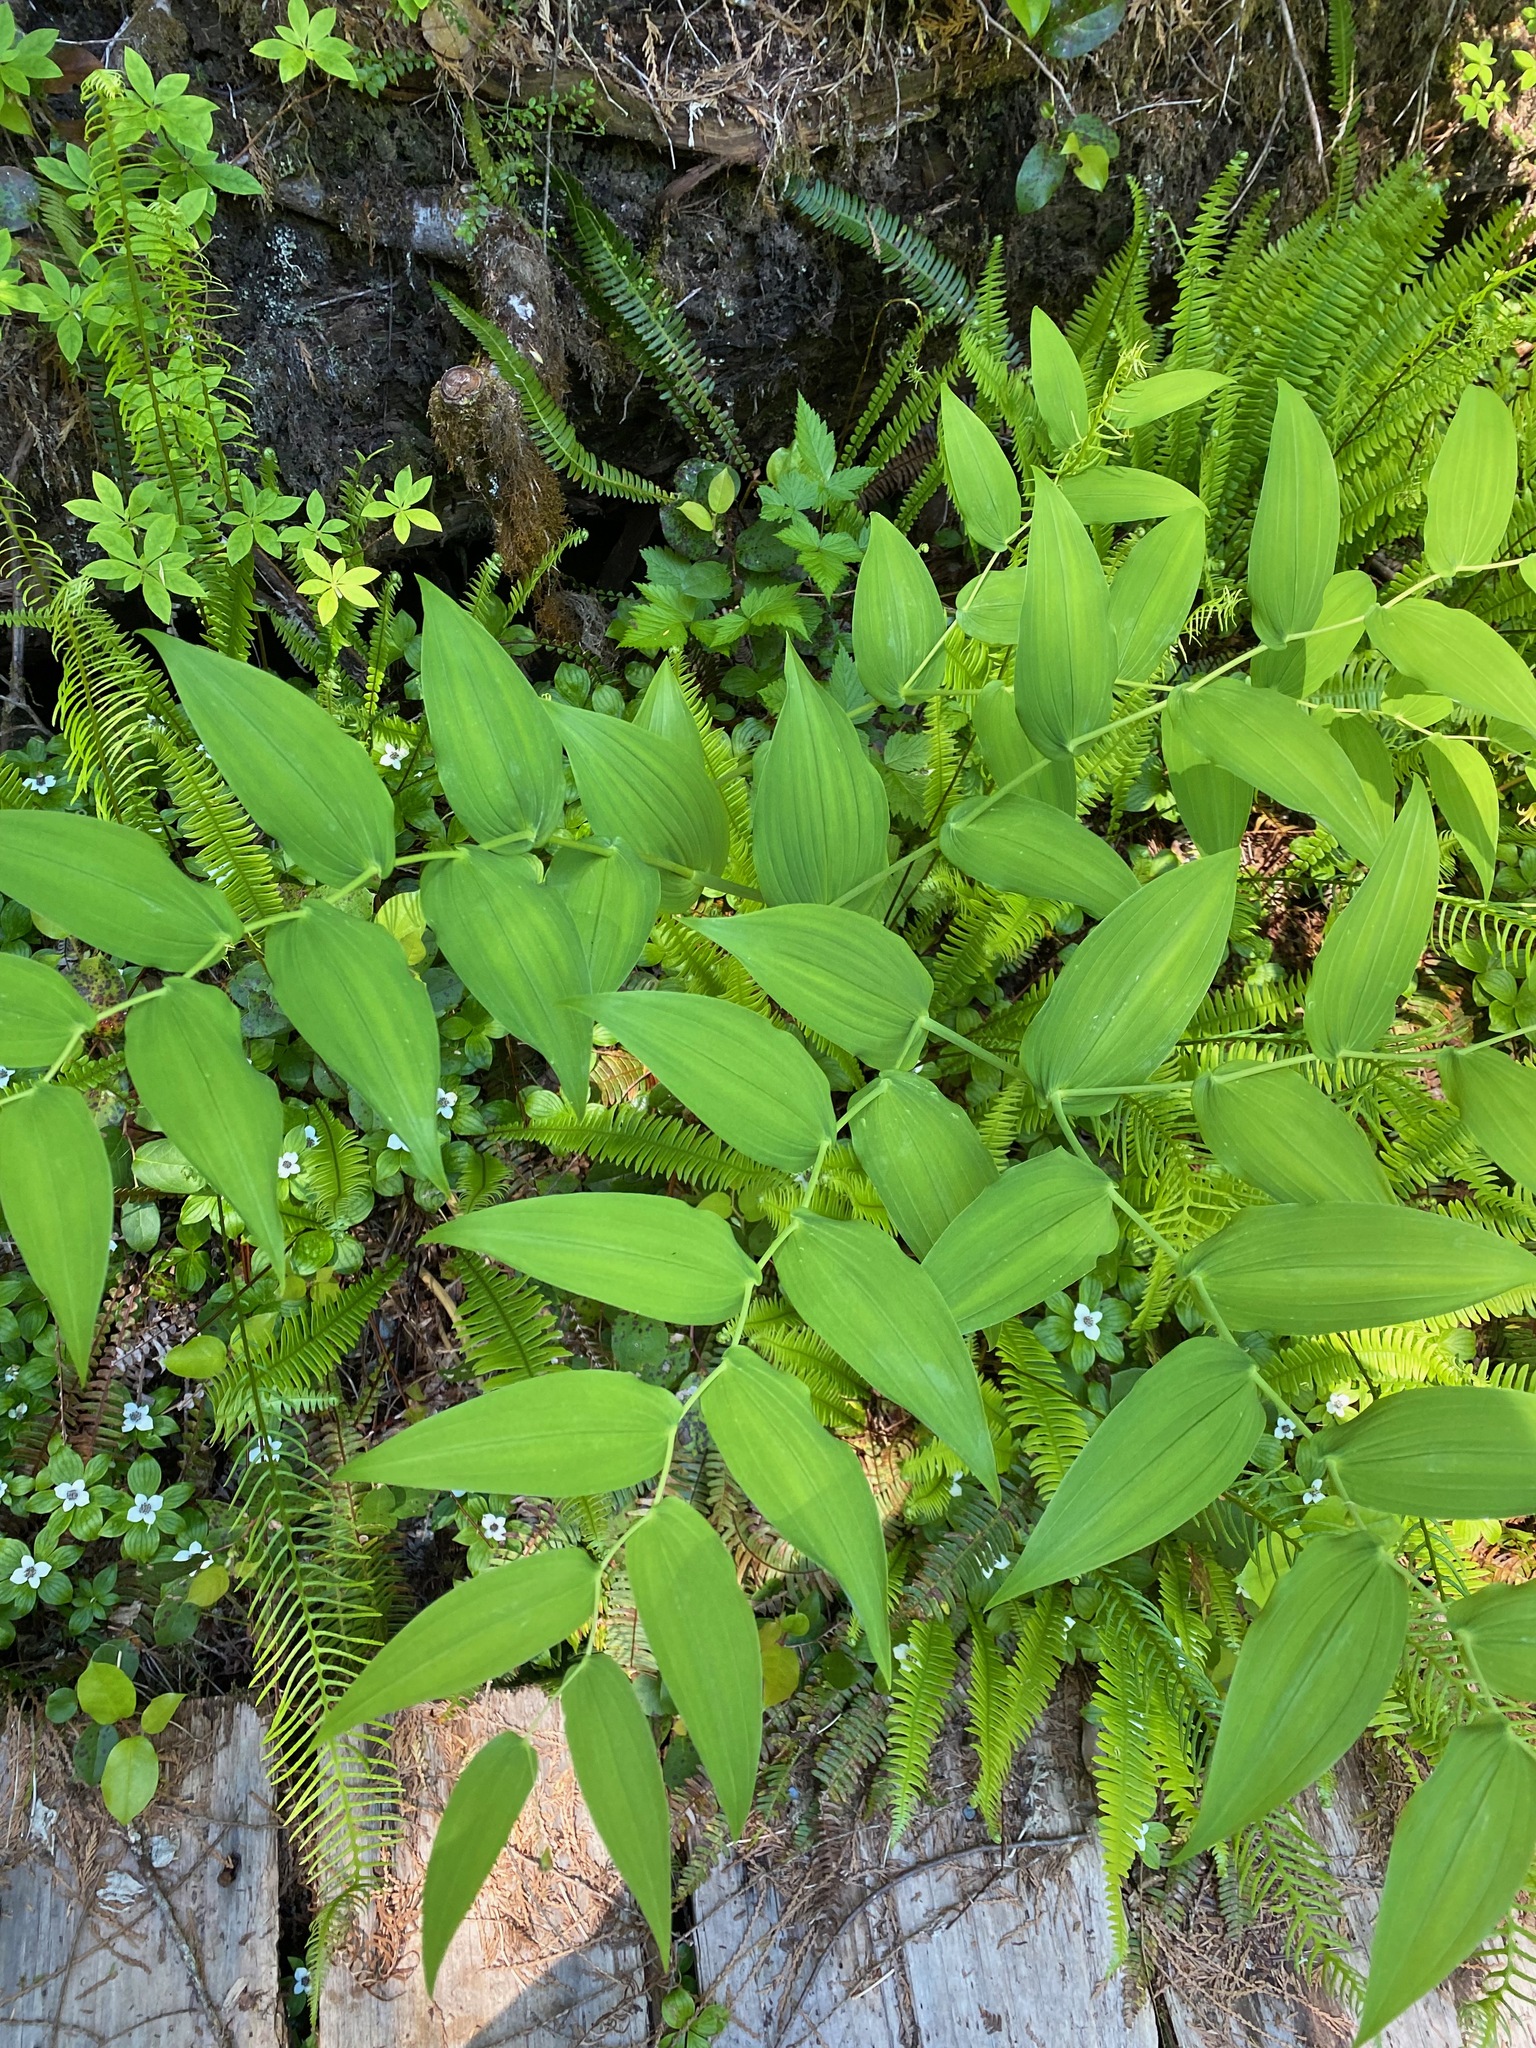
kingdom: Plantae
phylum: Tracheophyta
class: Liliopsida
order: Liliales
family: Liliaceae
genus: Streptopus
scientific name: Streptopus amplexifolius
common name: Clasp twisted stalk
